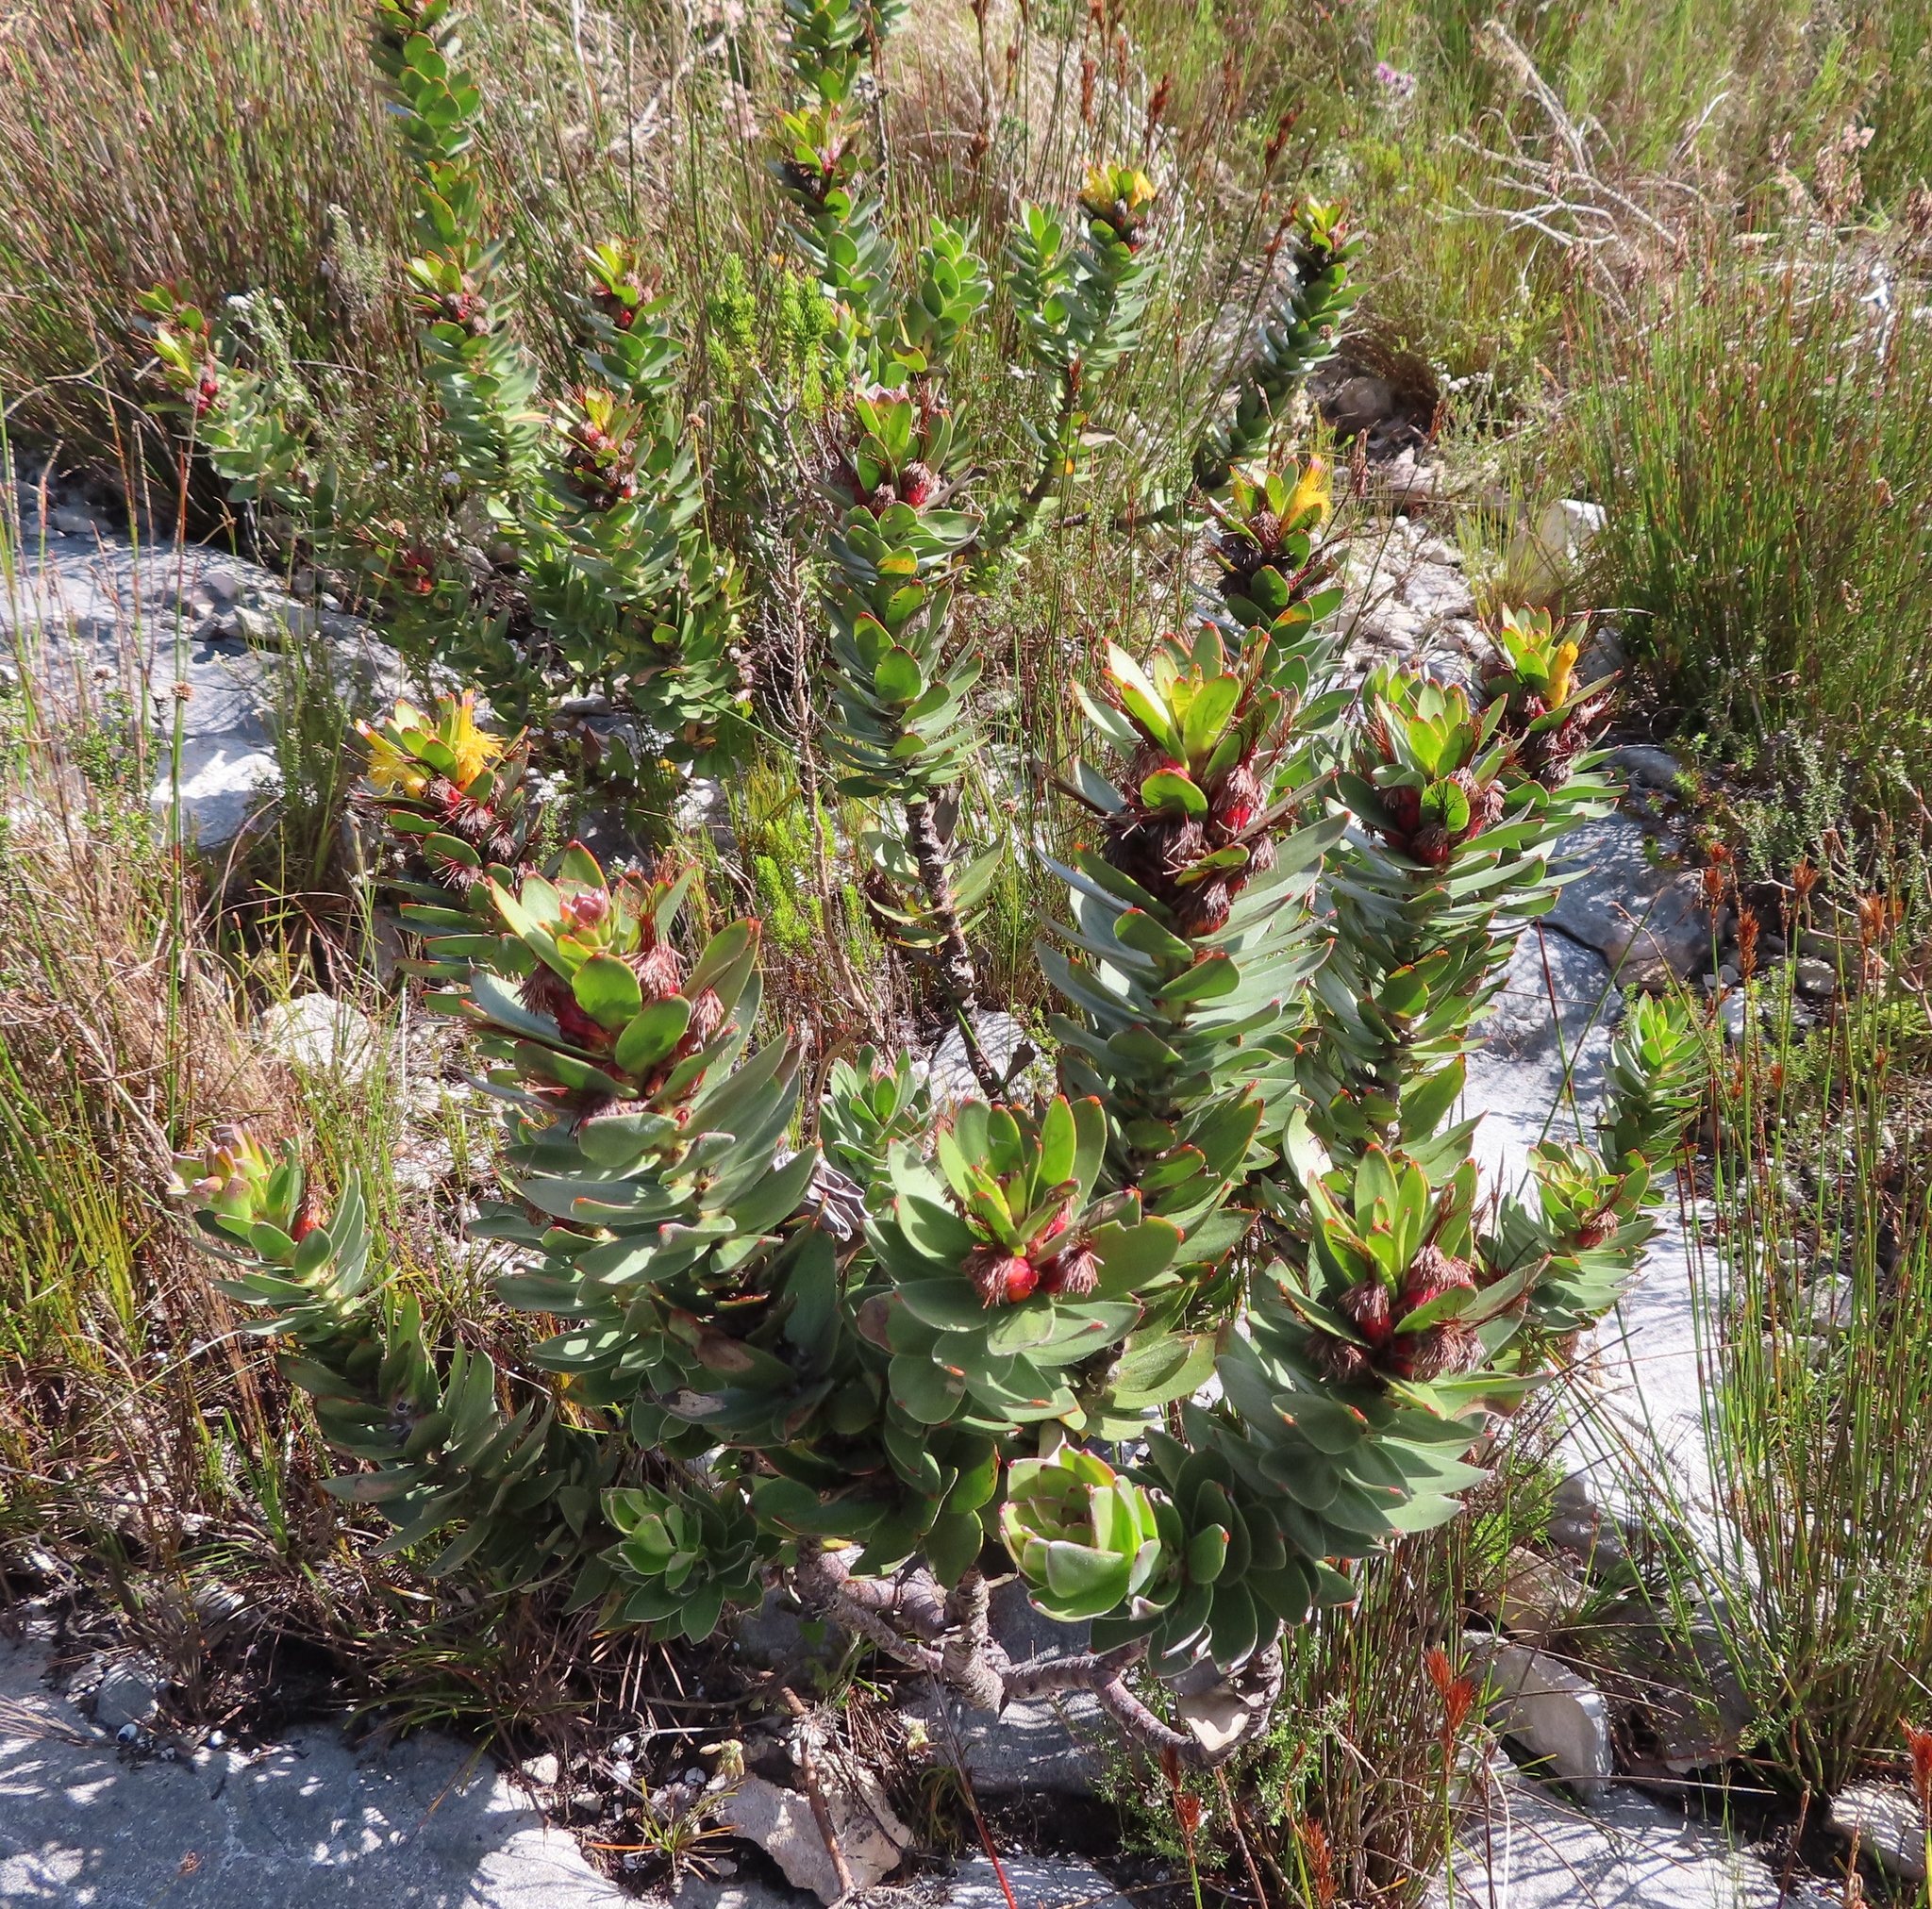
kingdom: Plantae
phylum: Tracheophyta
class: Magnoliopsida
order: Proteales
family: Proteaceae
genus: Mimetes
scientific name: Mimetes saxatilis
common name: Limestone pagoda
